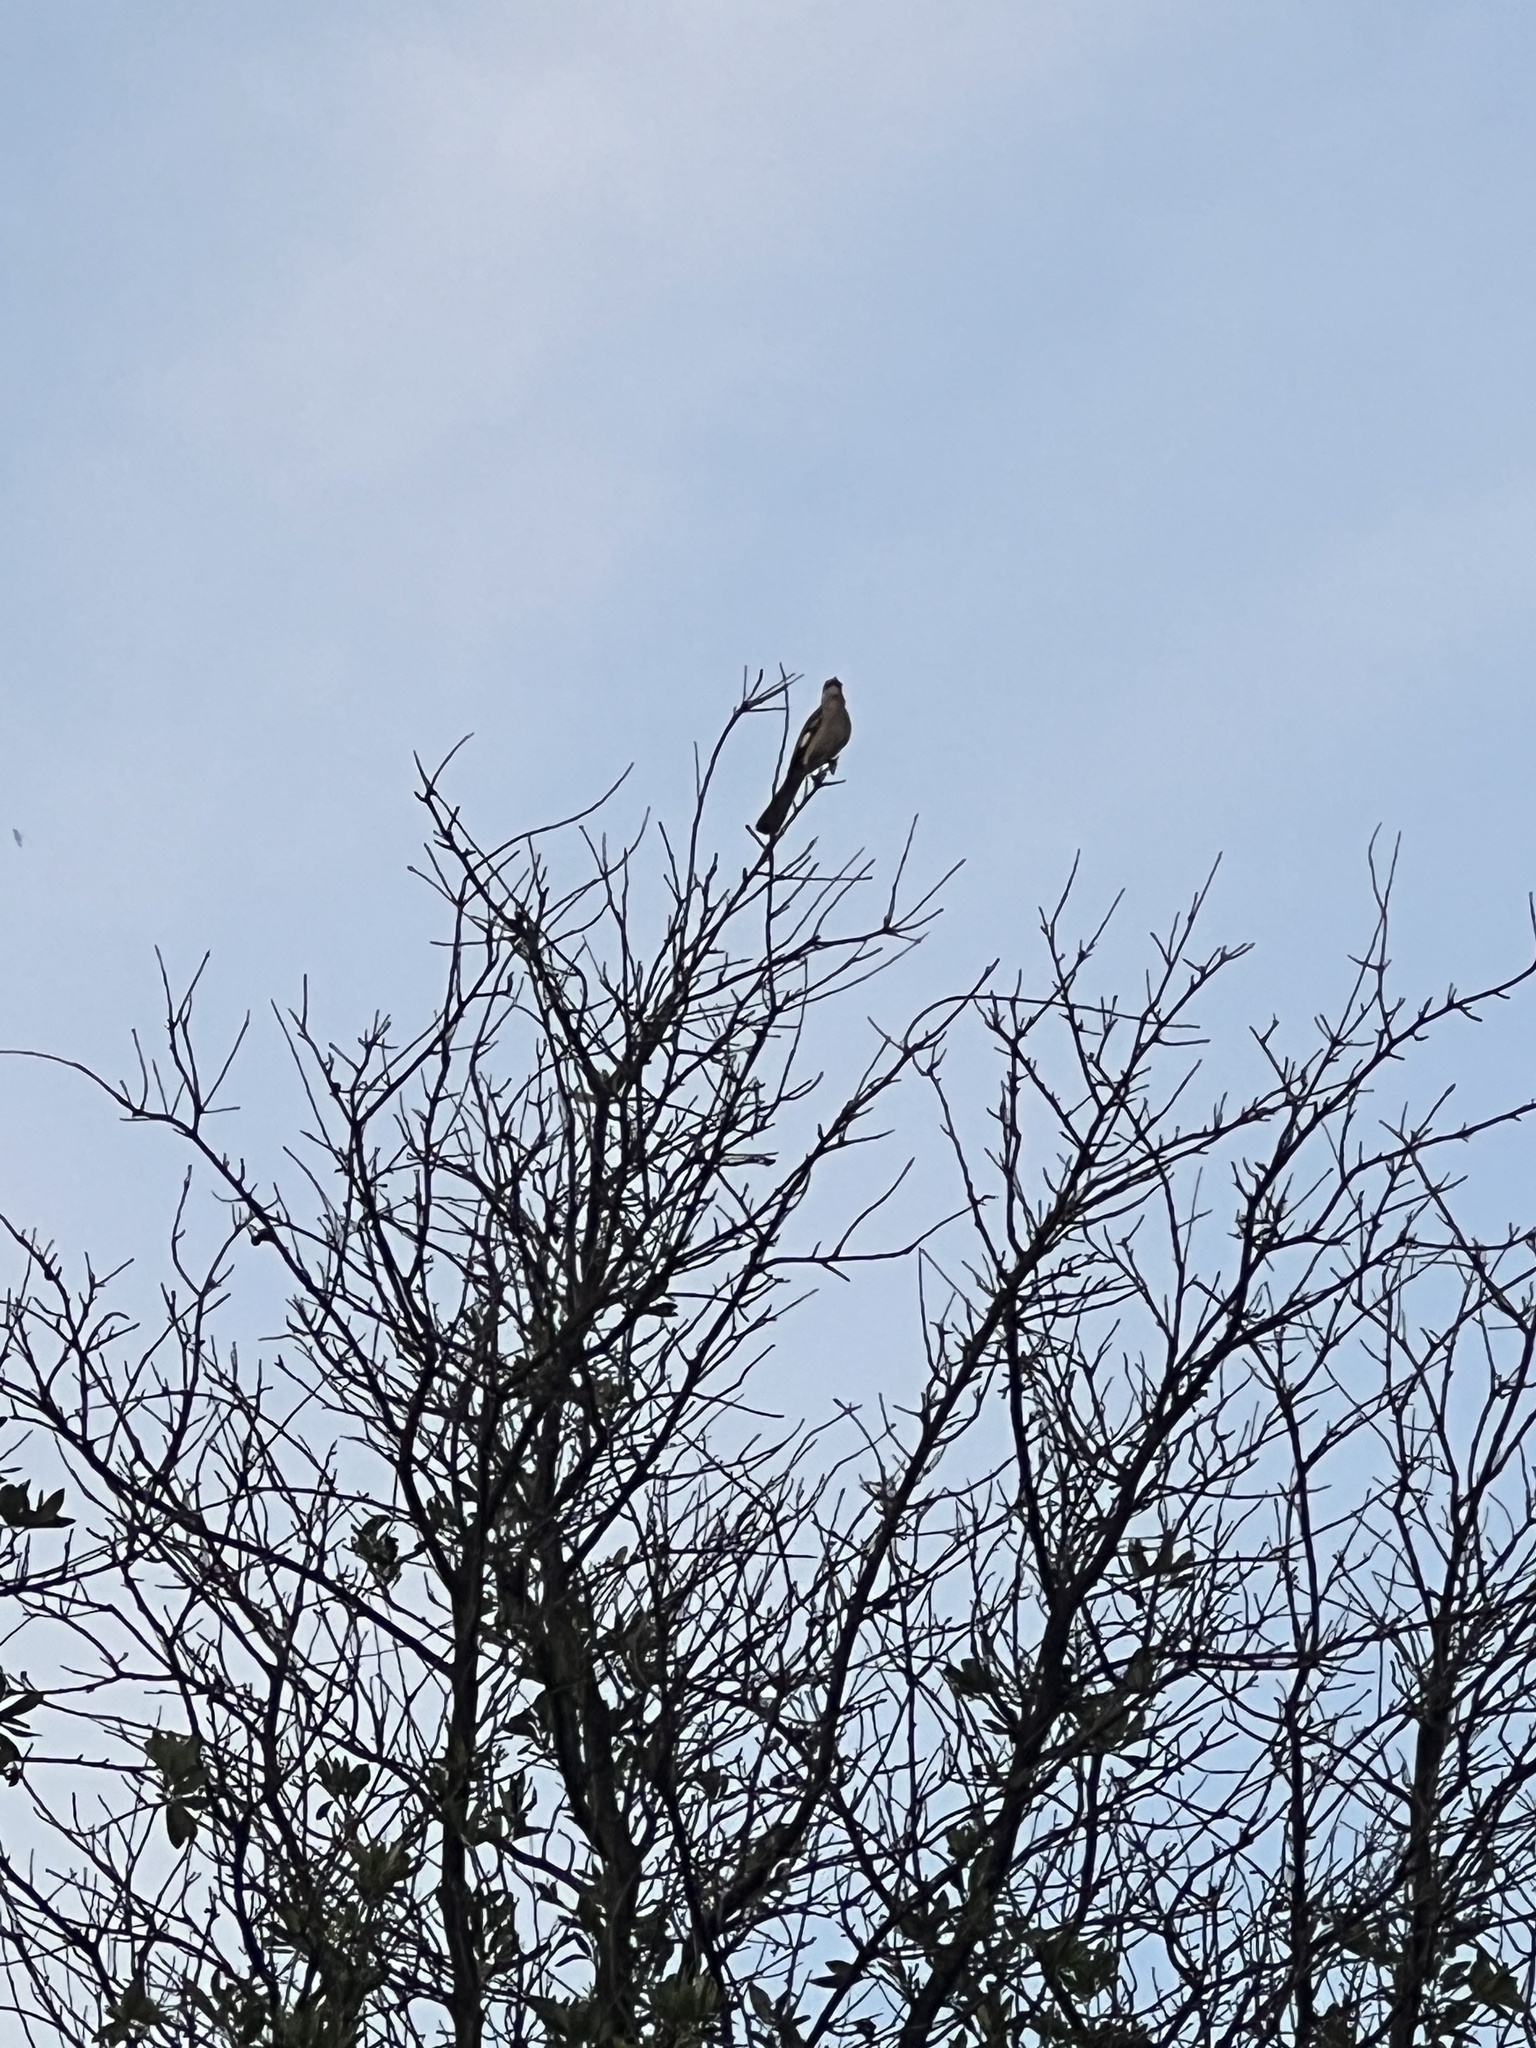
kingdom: Animalia
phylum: Chordata
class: Aves
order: Passeriformes
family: Mimidae
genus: Mimus
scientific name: Mimus polyglottos
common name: Northern mockingbird
